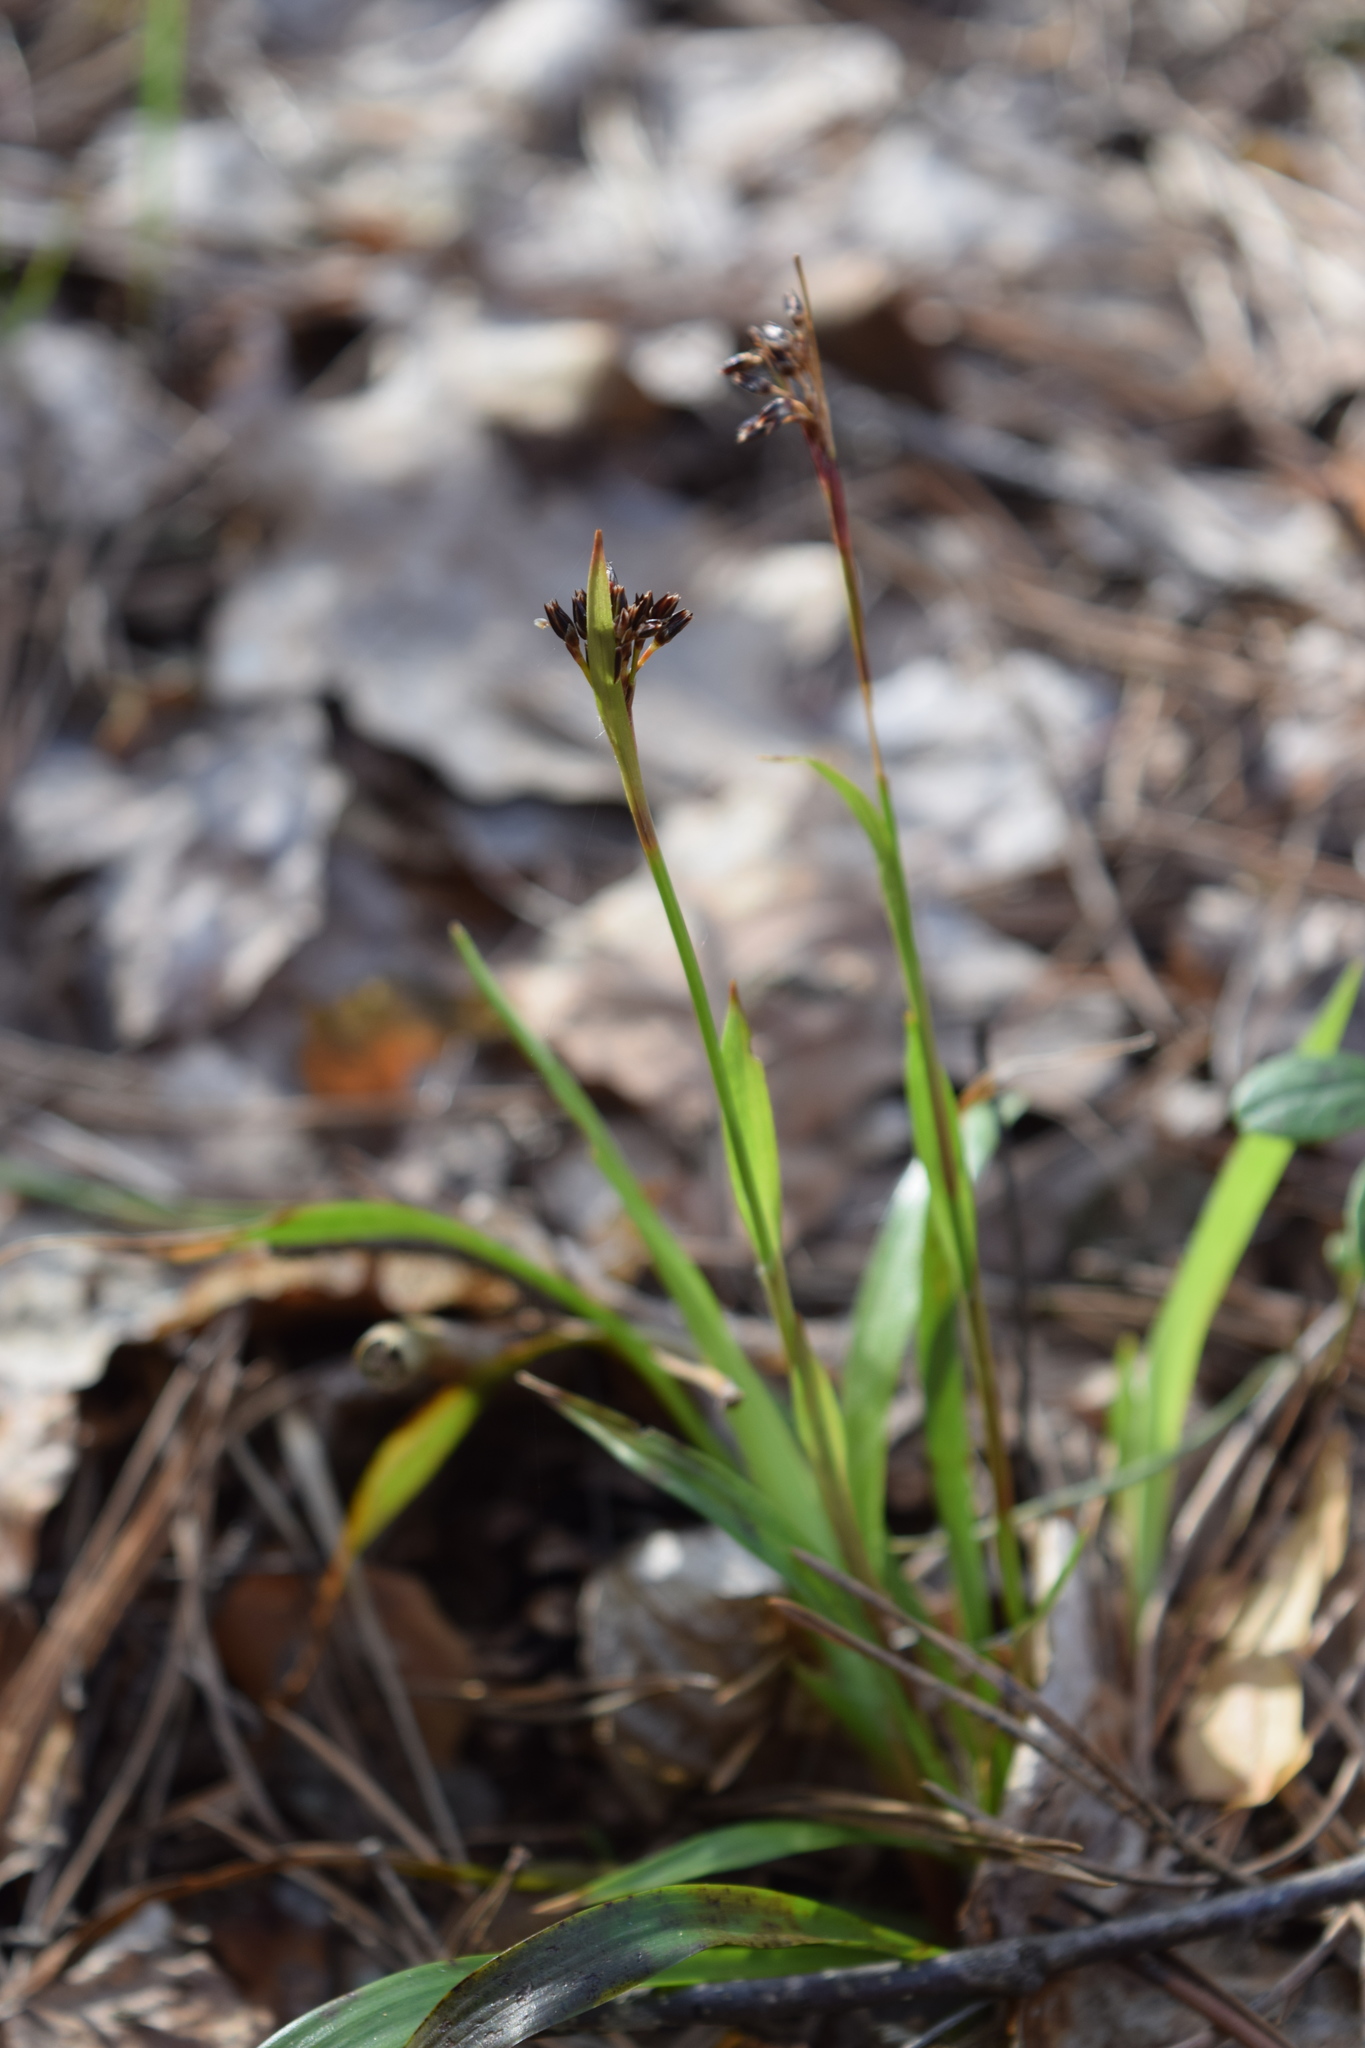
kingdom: Plantae
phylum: Tracheophyta
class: Liliopsida
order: Poales
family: Juncaceae
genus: Luzula
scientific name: Luzula pilosa
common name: Hairy wood-rush
